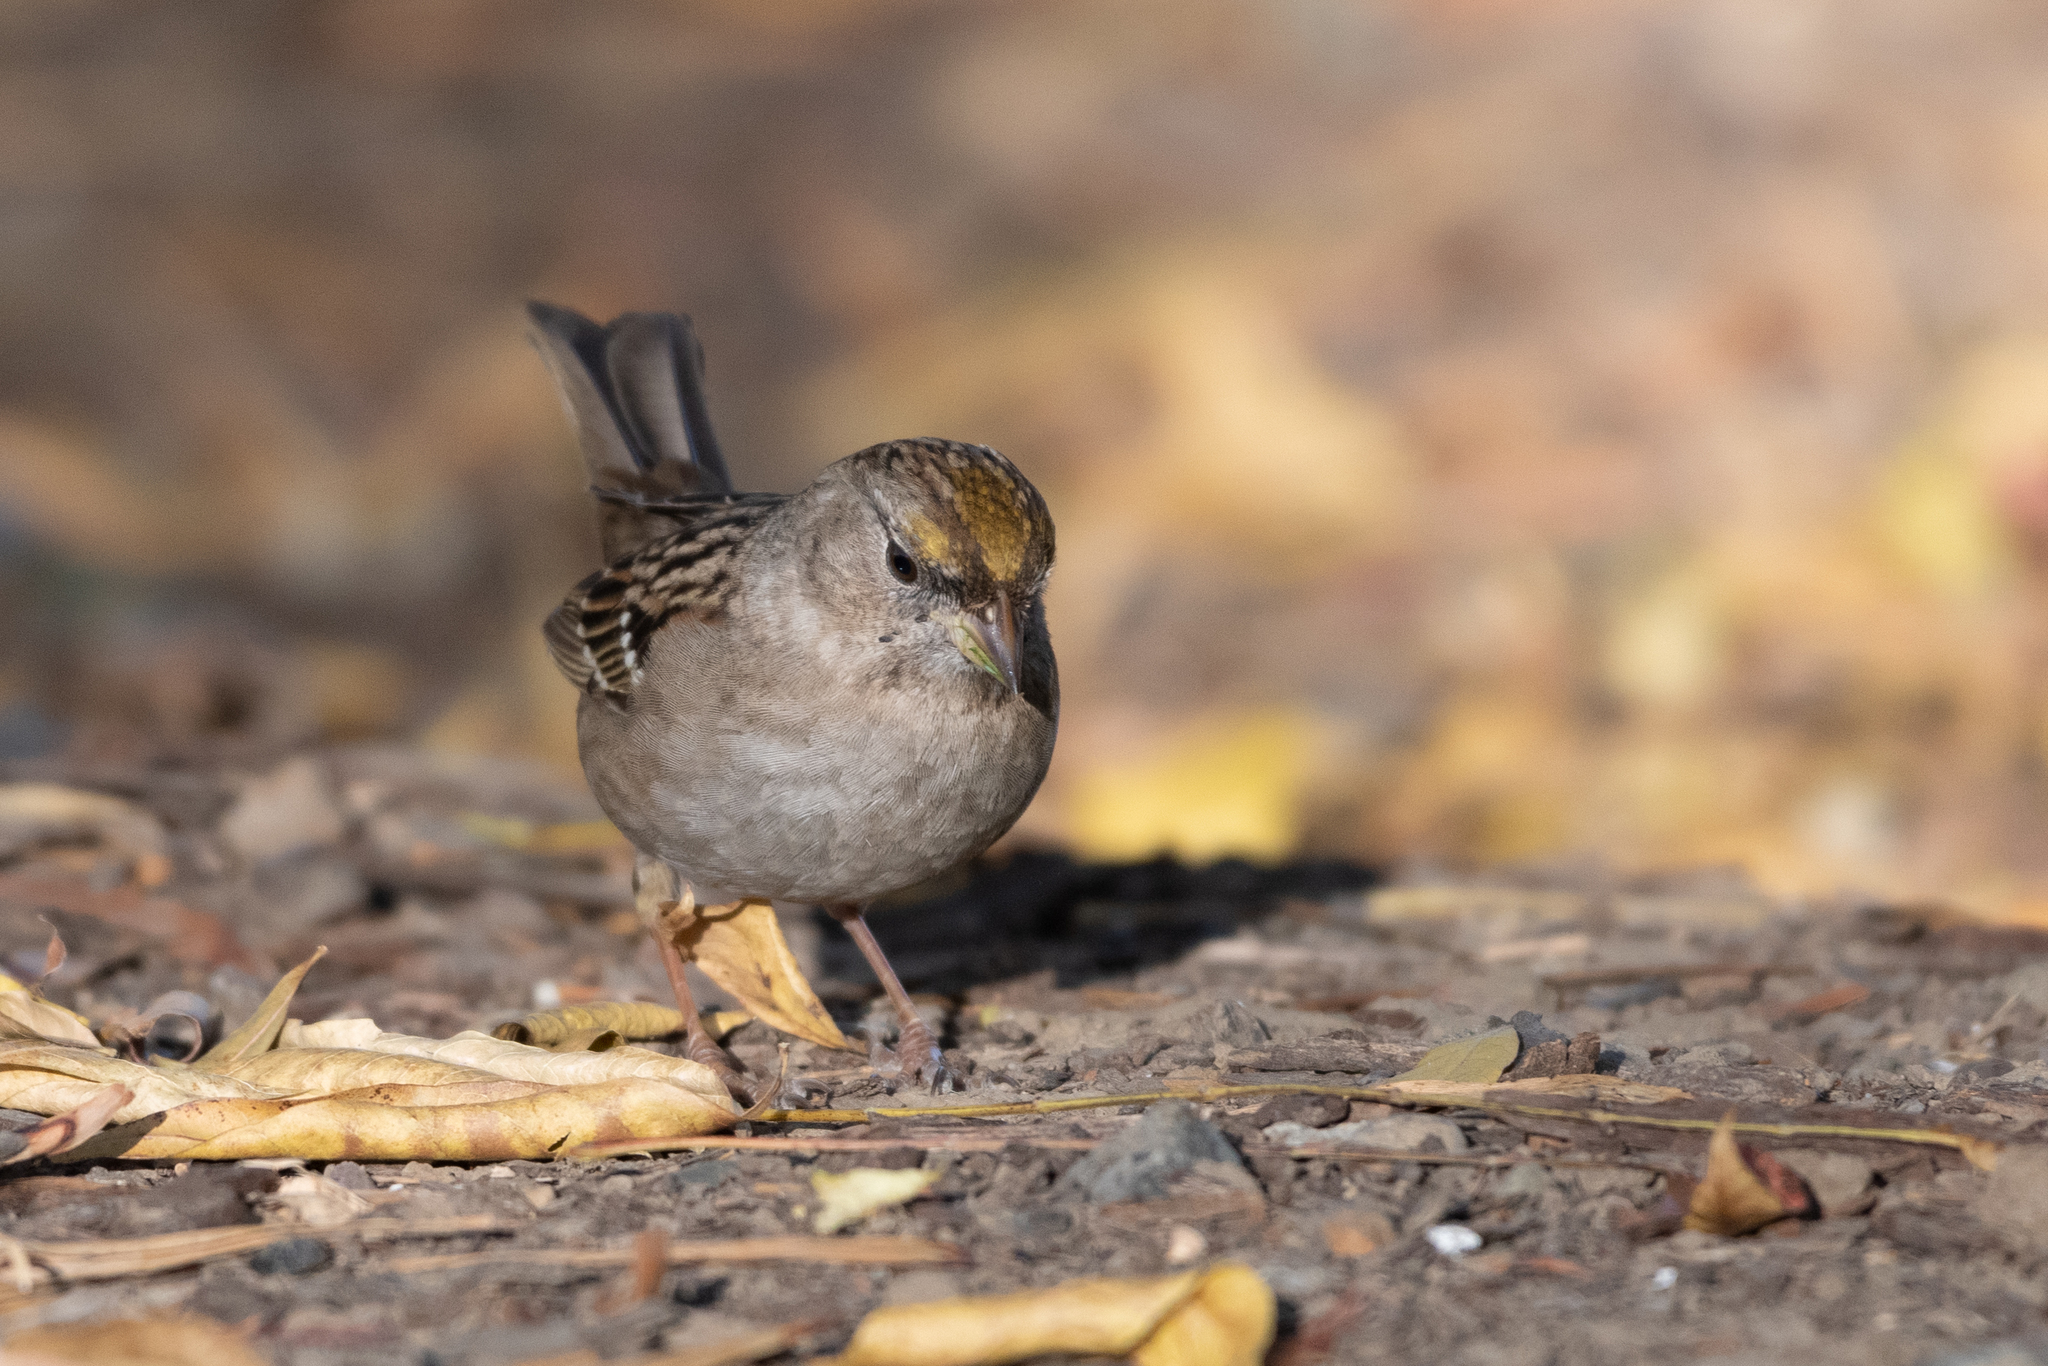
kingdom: Animalia
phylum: Chordata
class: Aves
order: Passeriformes
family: Passerellidae
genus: Zonotrichia
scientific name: Zonotrichia atricapilla
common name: Golden-crowned sparrow
